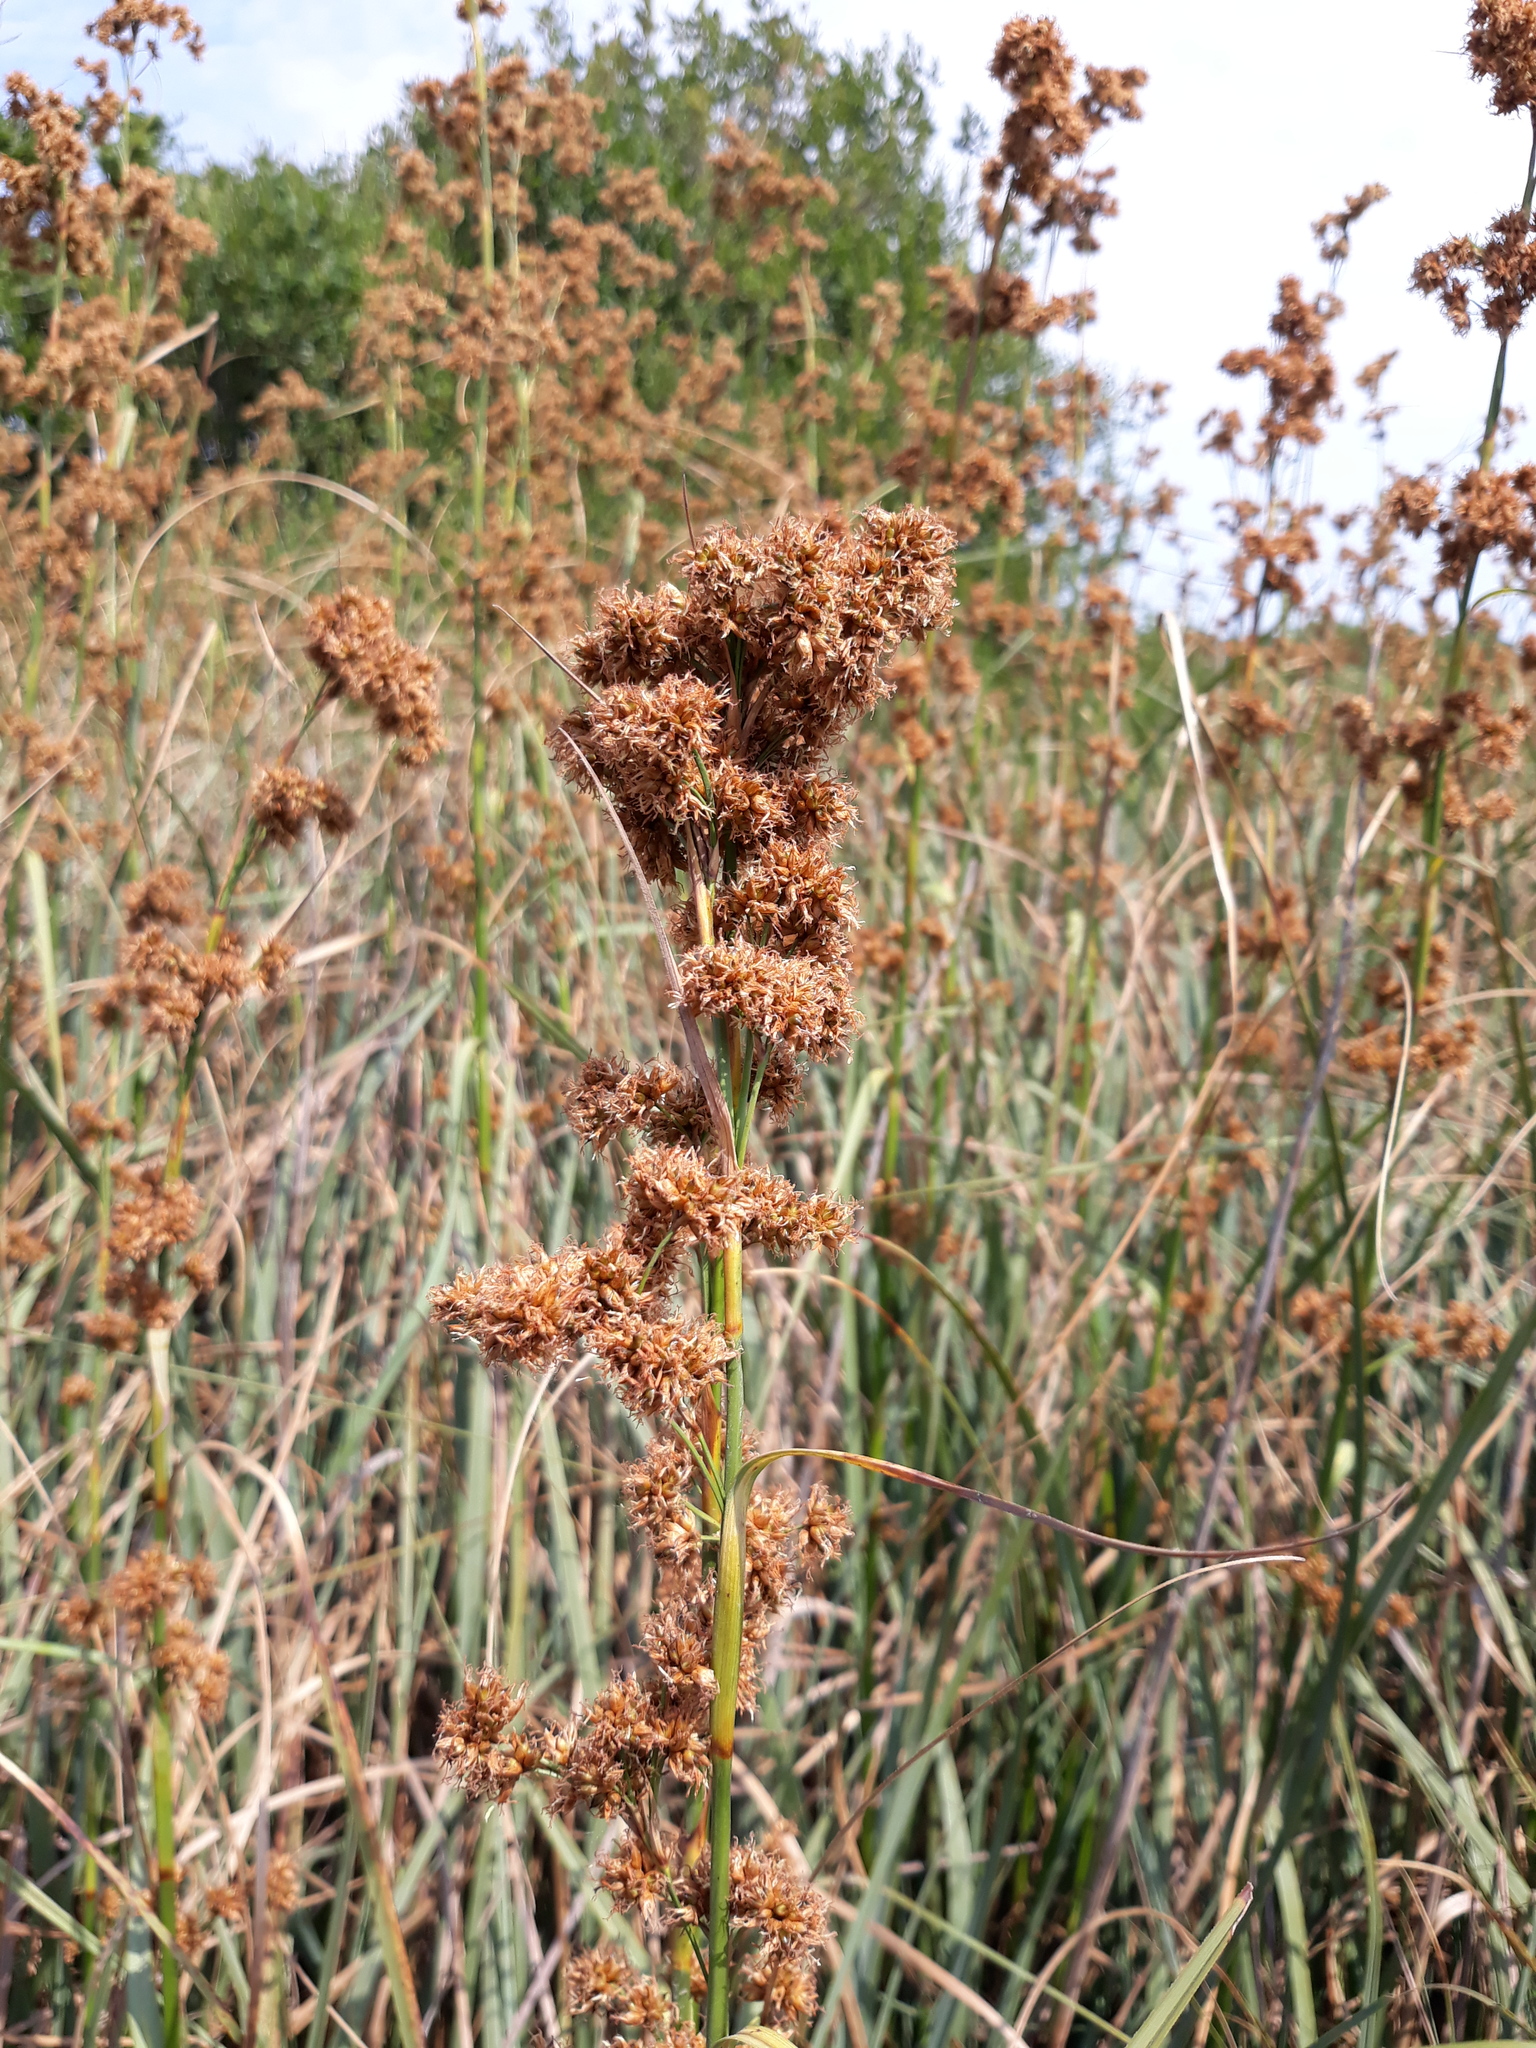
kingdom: Plantae
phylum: Tracheophyta
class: Liliopsida
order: Poales
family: Cyperaceae
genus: Cladium
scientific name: Cladium mariscus
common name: Great fen-sedge
